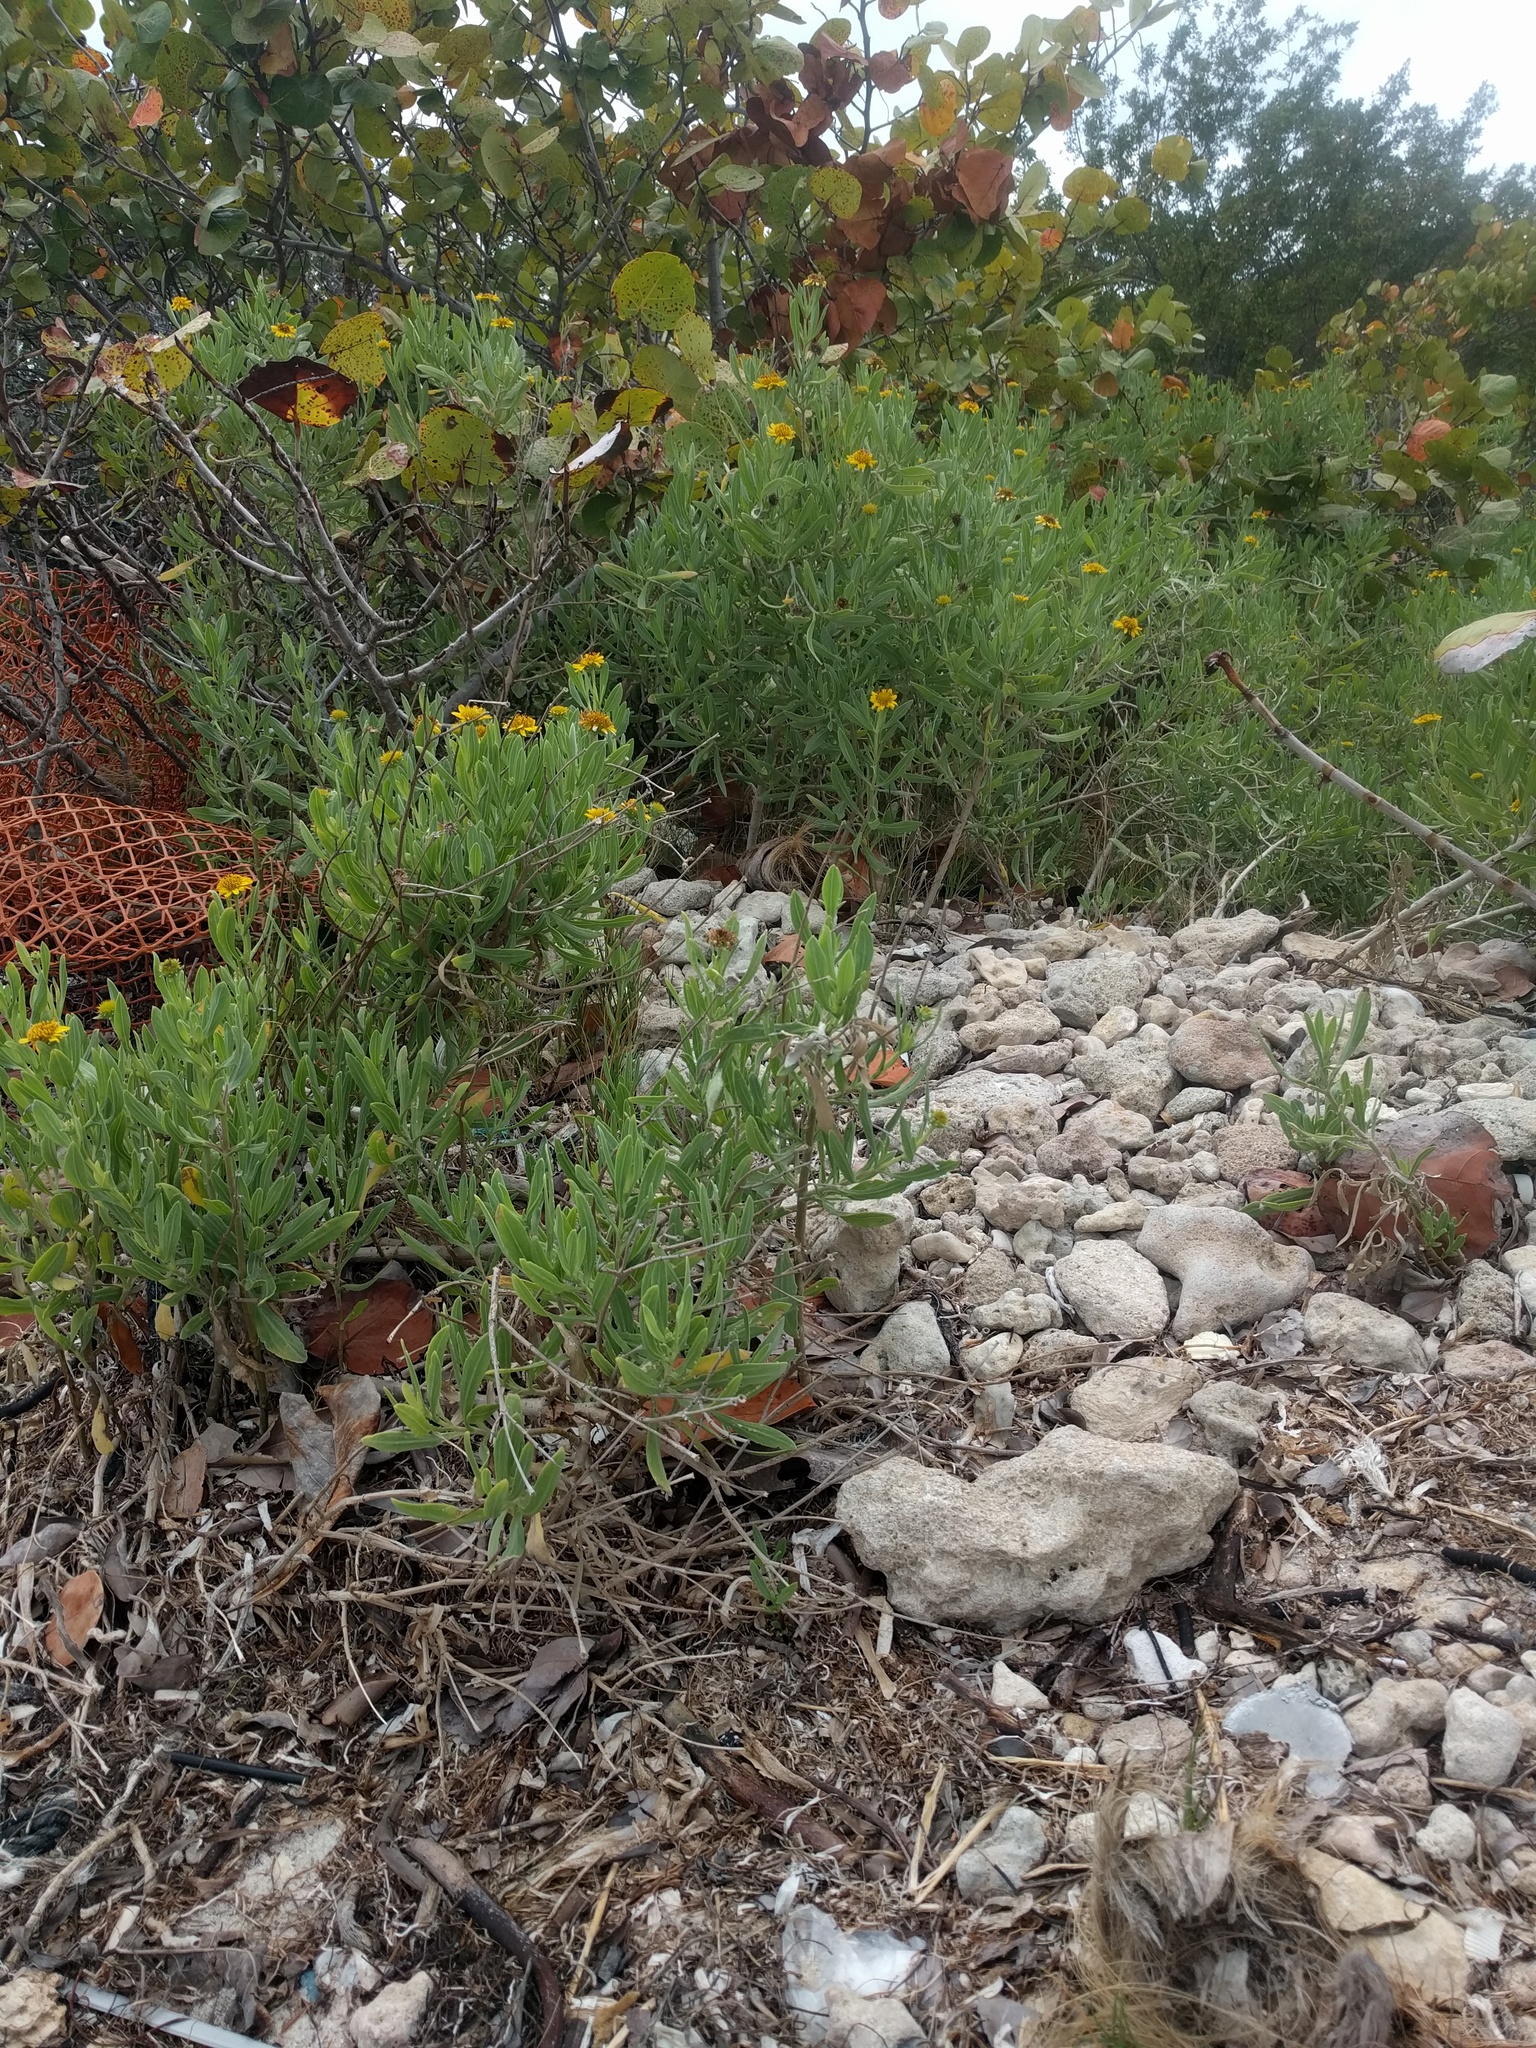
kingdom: Plantae
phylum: Tracheophyta
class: Magnoliopsida
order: Asterales
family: Asteraceae
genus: Borrichia
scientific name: Borrichia frutescens
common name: Sea oxeye
